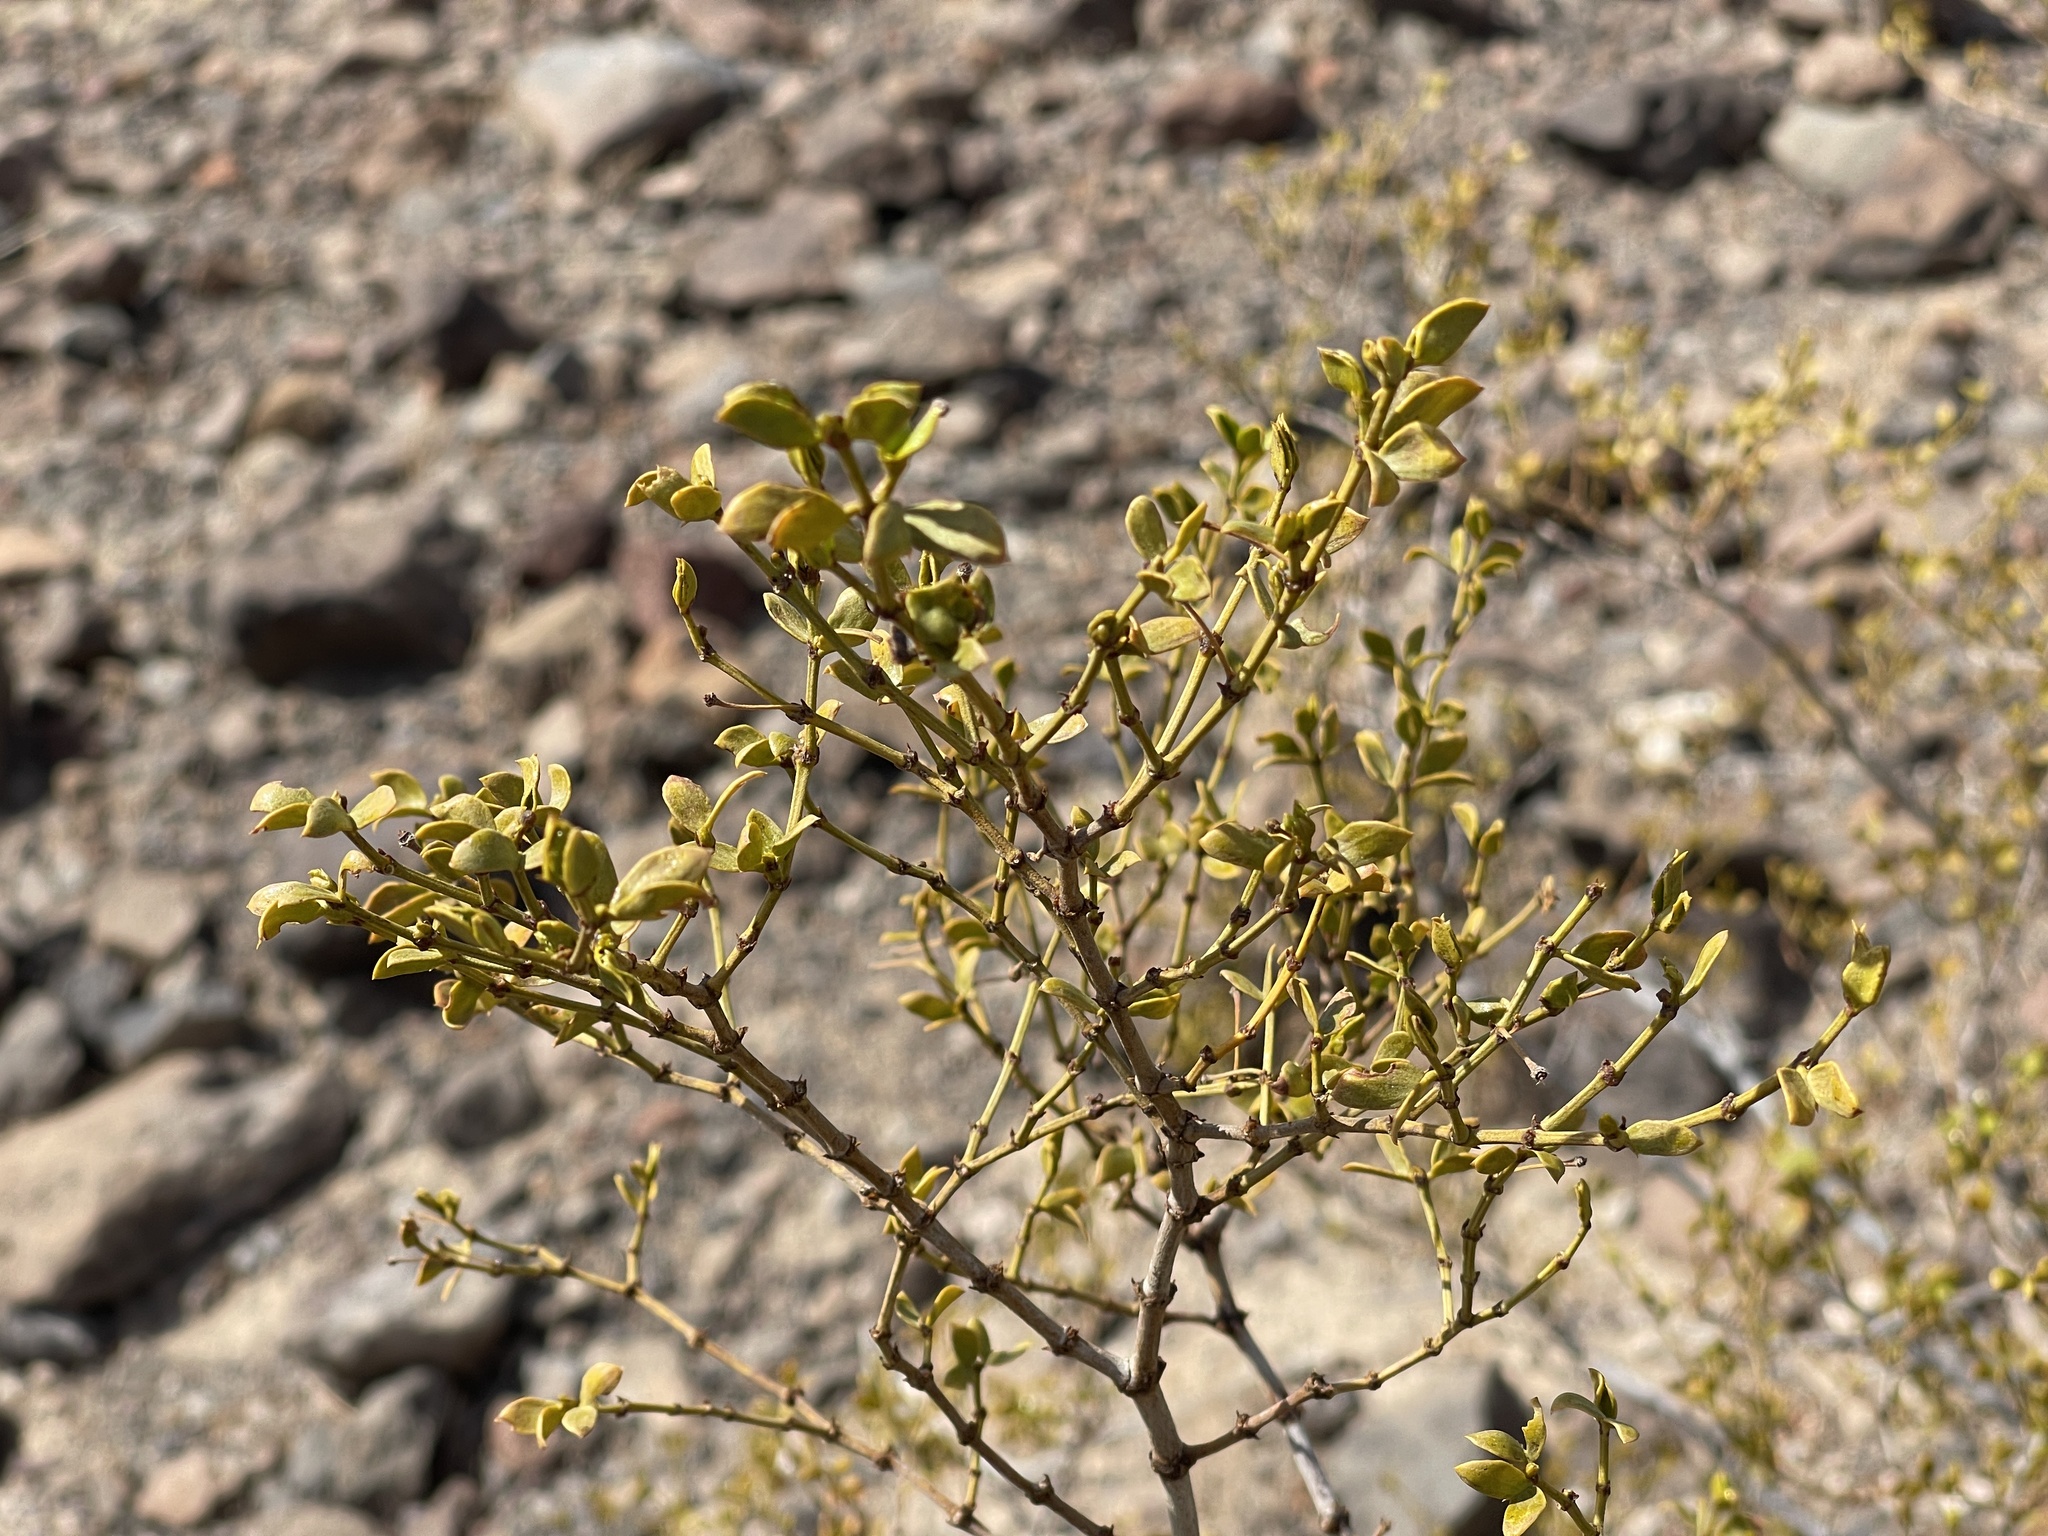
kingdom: Plantae
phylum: Tracheophyta
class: Magnoliopsida
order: Zygophyllales
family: Zygophyllaceae
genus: Larrea
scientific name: Larrea tridentata
